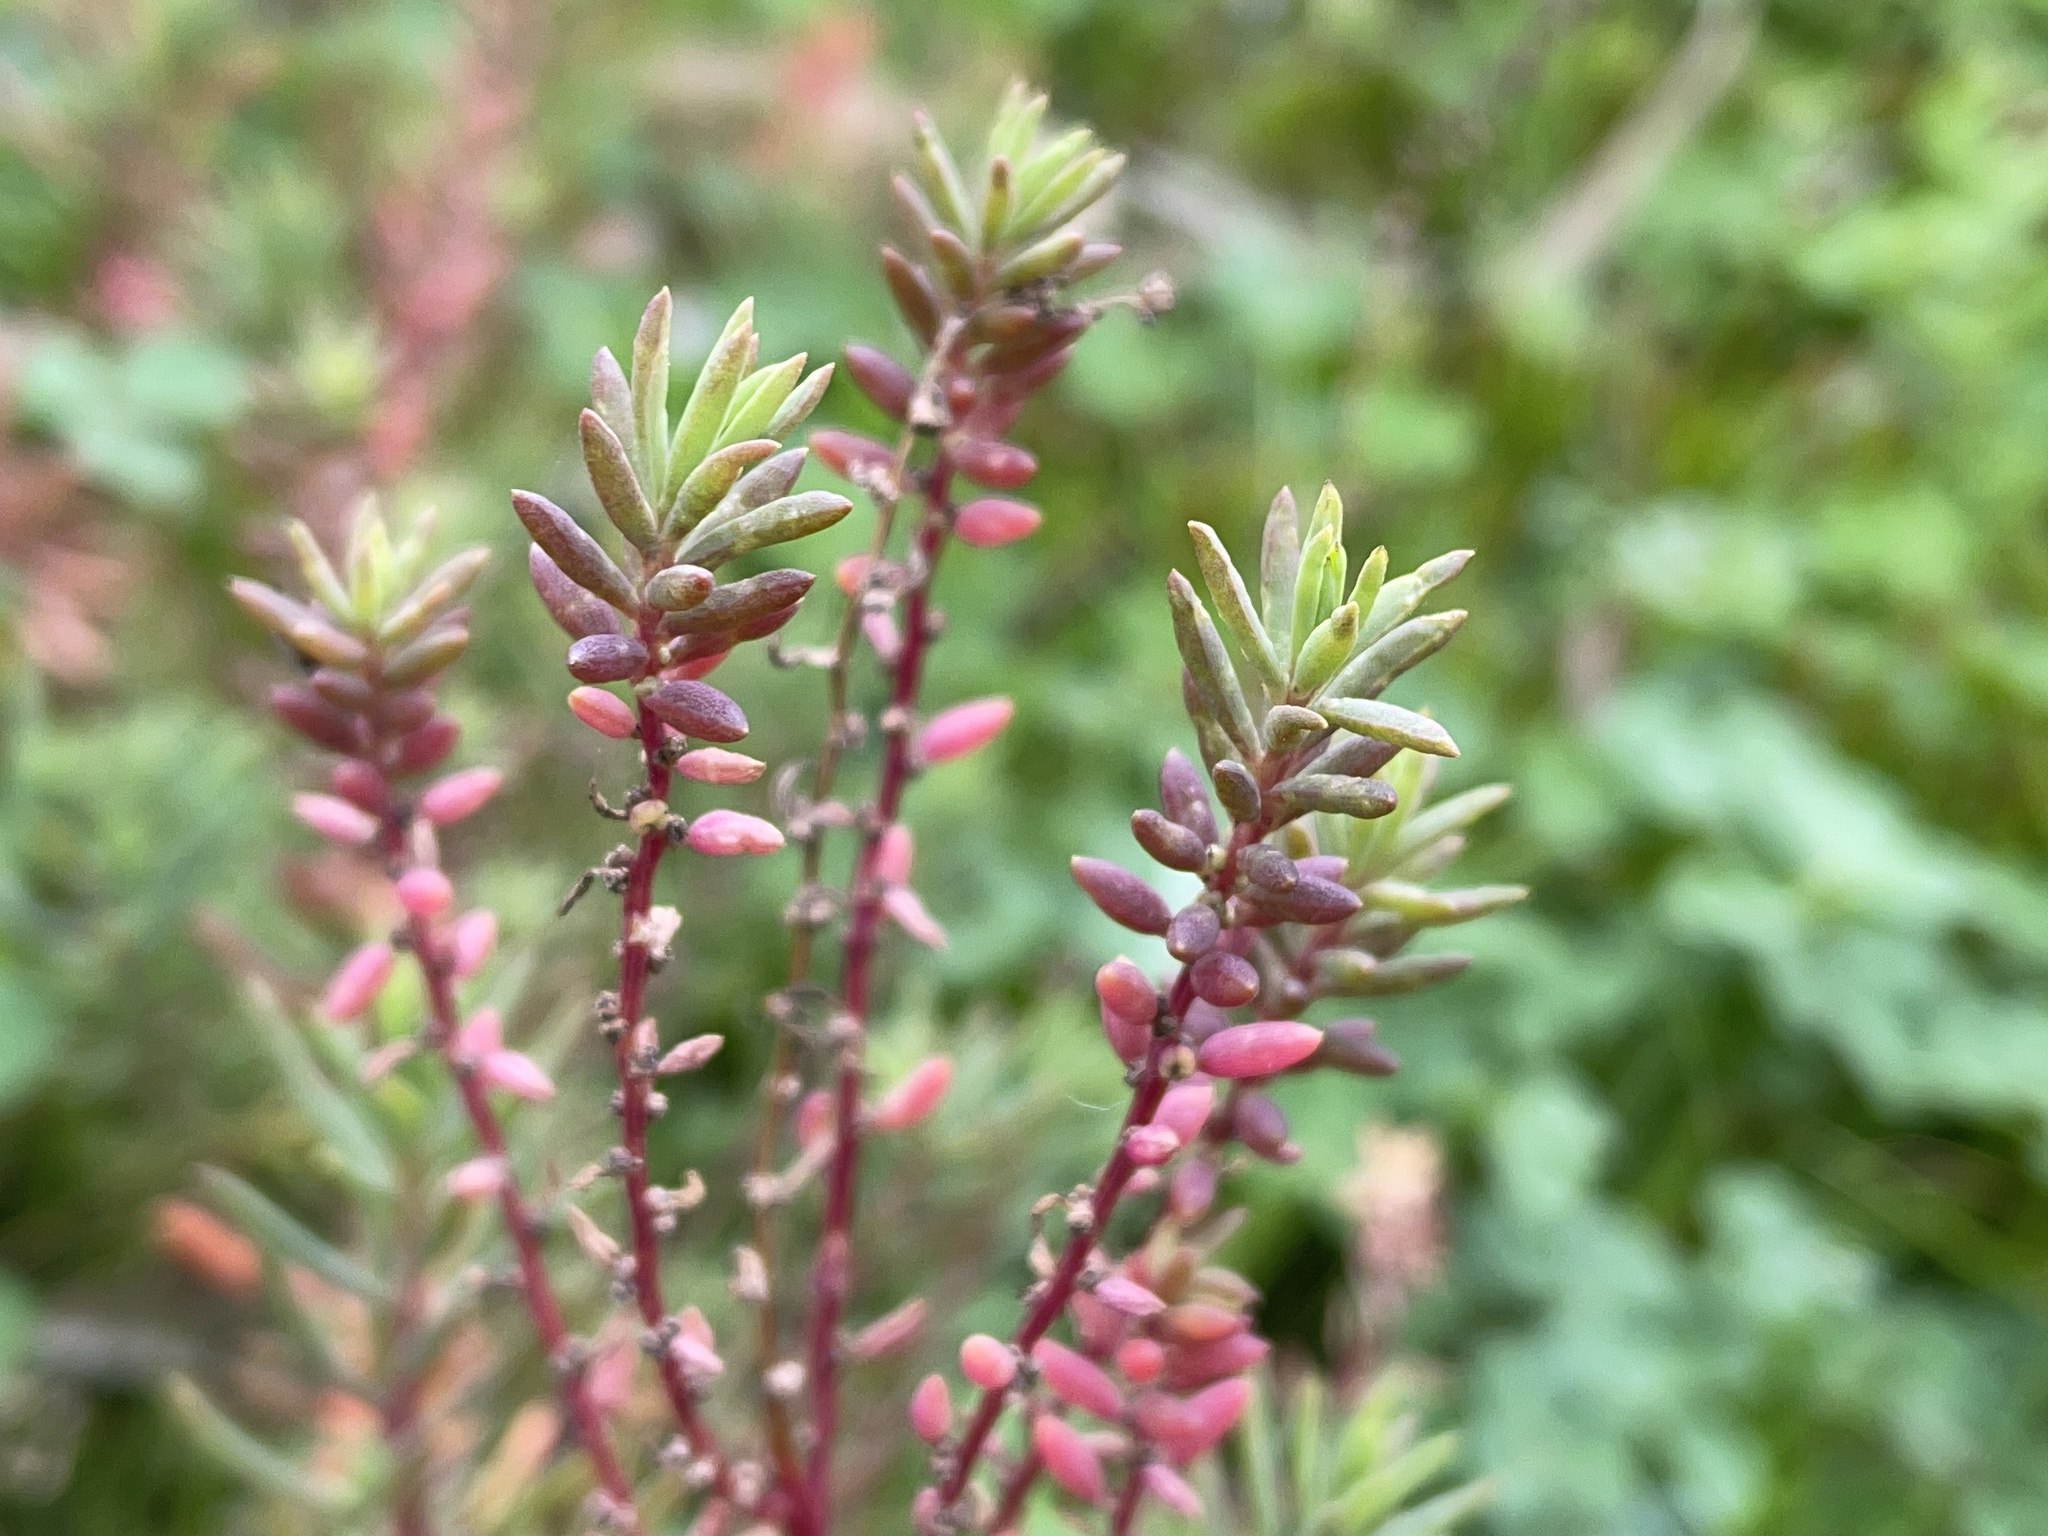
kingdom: Plantae
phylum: Tracheophyta
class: Magnoliopsida
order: Caryophyllales
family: Amaranthaceae
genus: Suaeda
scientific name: Suaeda australis
